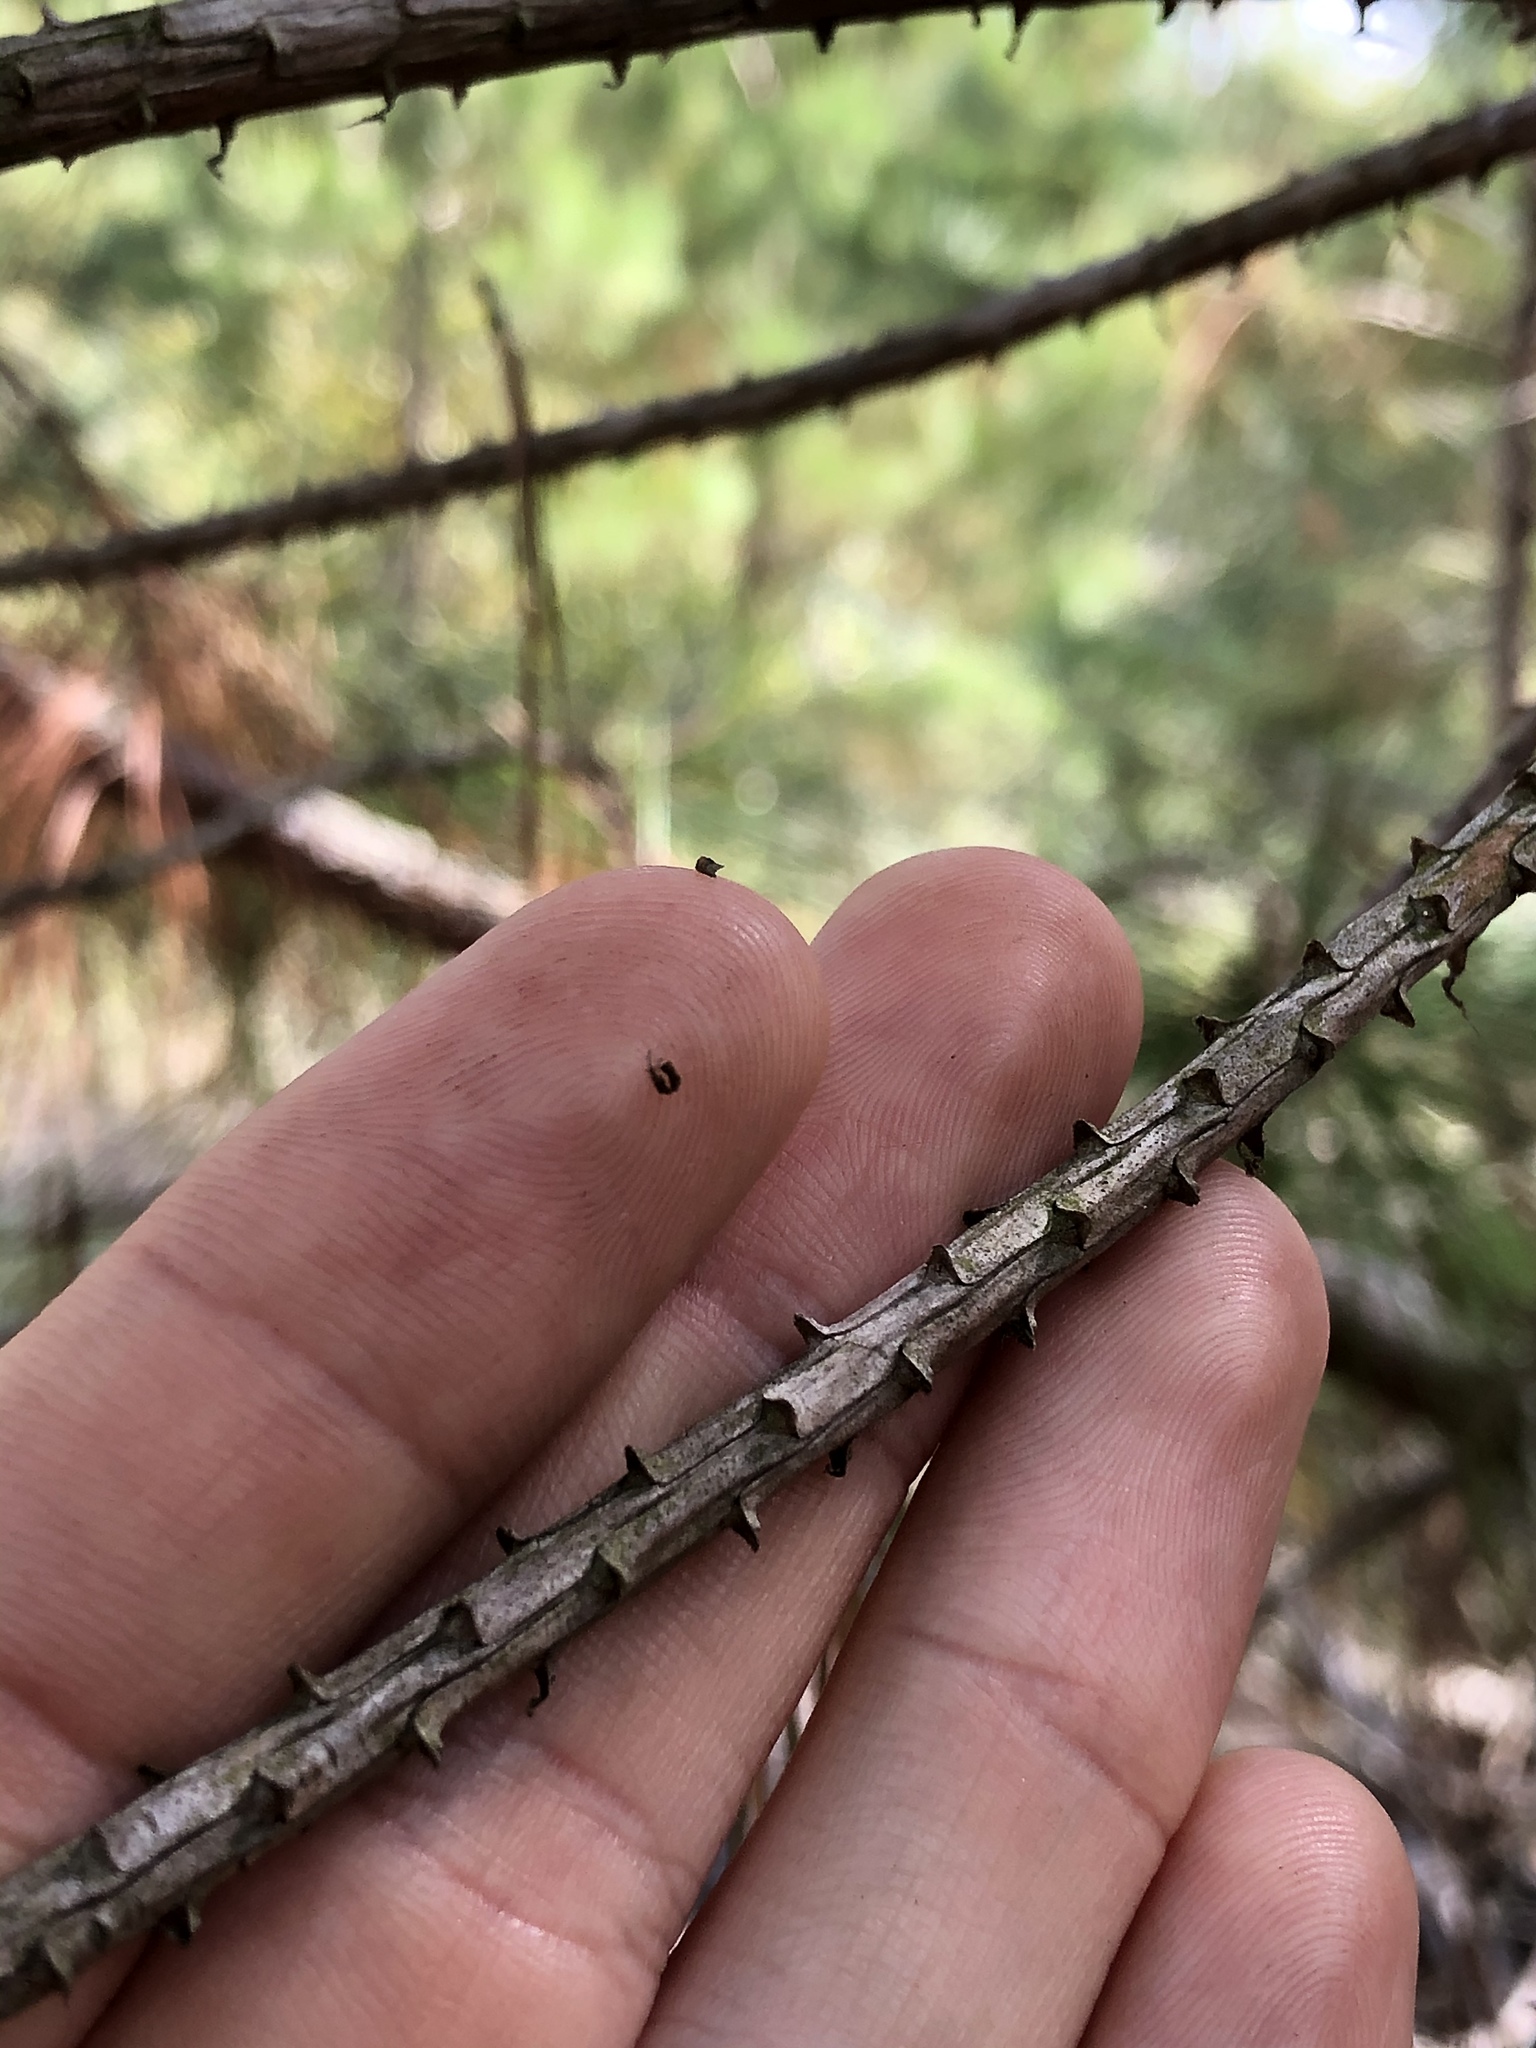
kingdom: Plantae
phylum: Tracheophyta
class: Pinopsida
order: Pinales
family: Pinaceae
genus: Pinus
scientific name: Pinus taeda
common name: Loblolly pine
